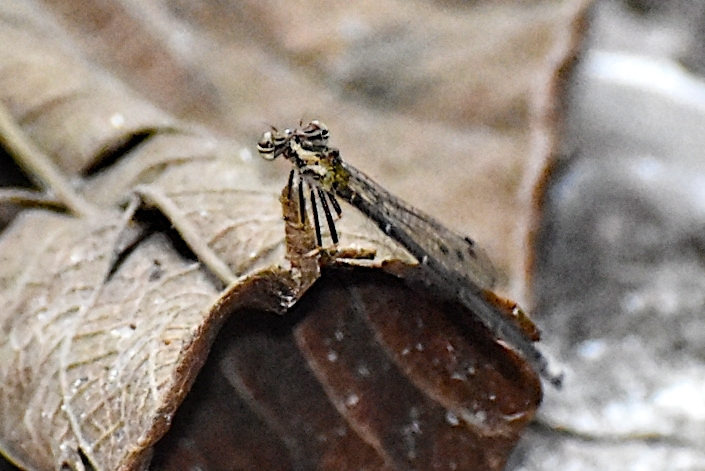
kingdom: Animalia
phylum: Arthropoda
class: Insecta
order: Odonata
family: Platycnemididae
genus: Copera
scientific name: Copera marginipes
